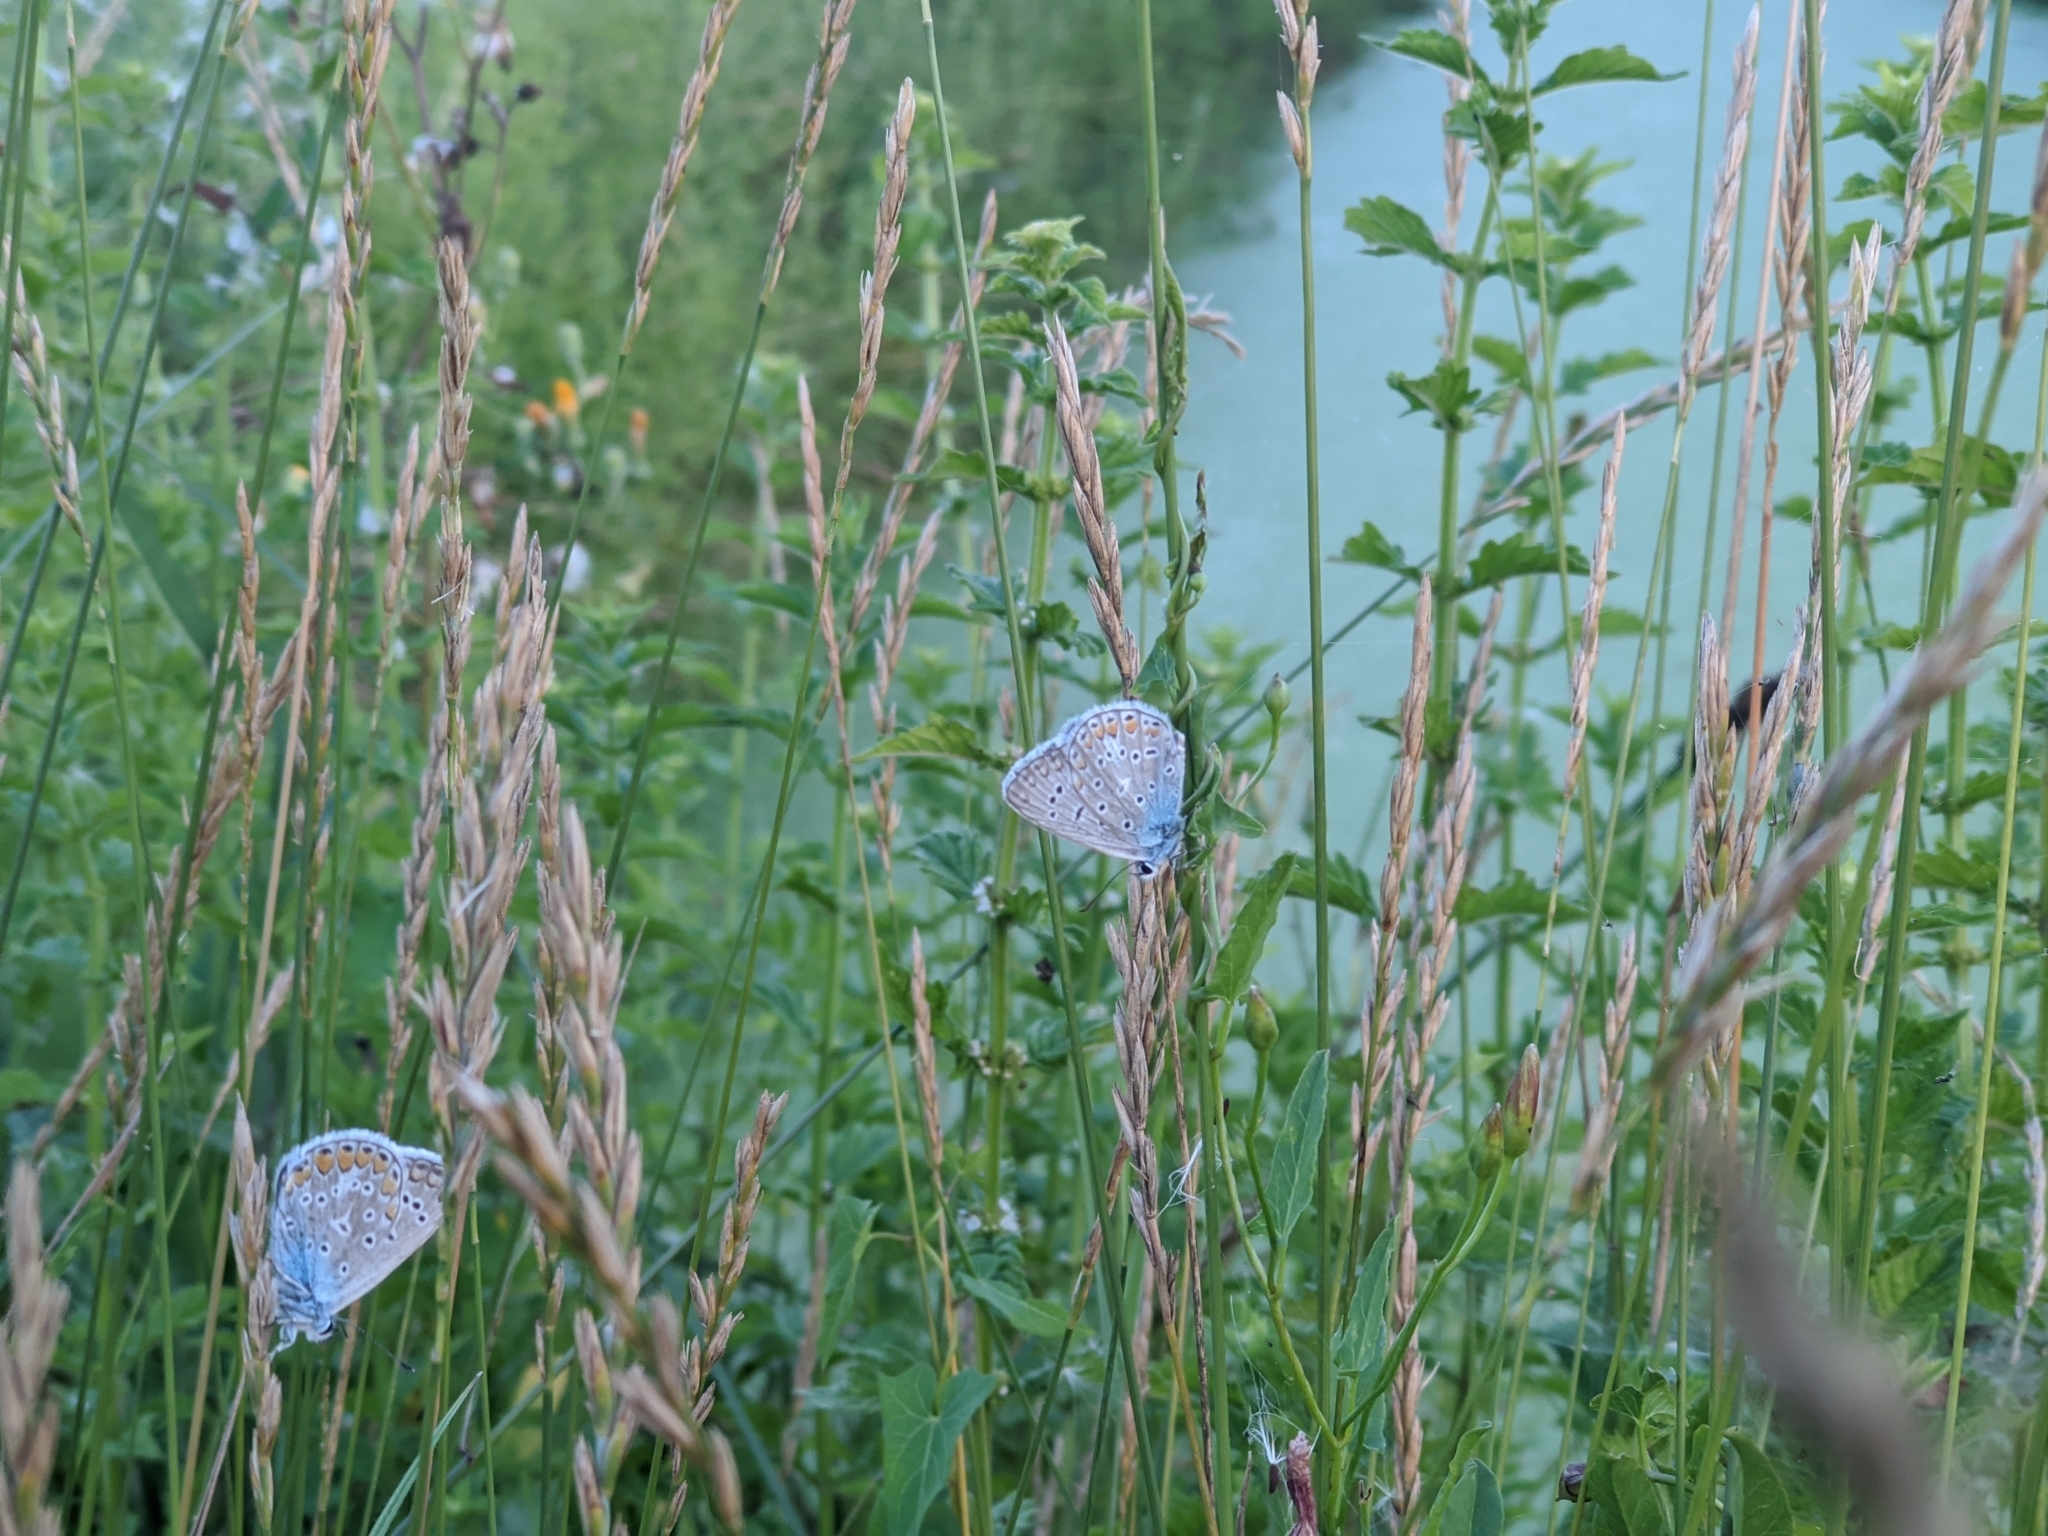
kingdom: Animalia
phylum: Arthropoda
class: Insecta
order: Lepidoptera
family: Lycaenidae
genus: Polyommatus
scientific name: Polyommatus icarus
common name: Common blue
